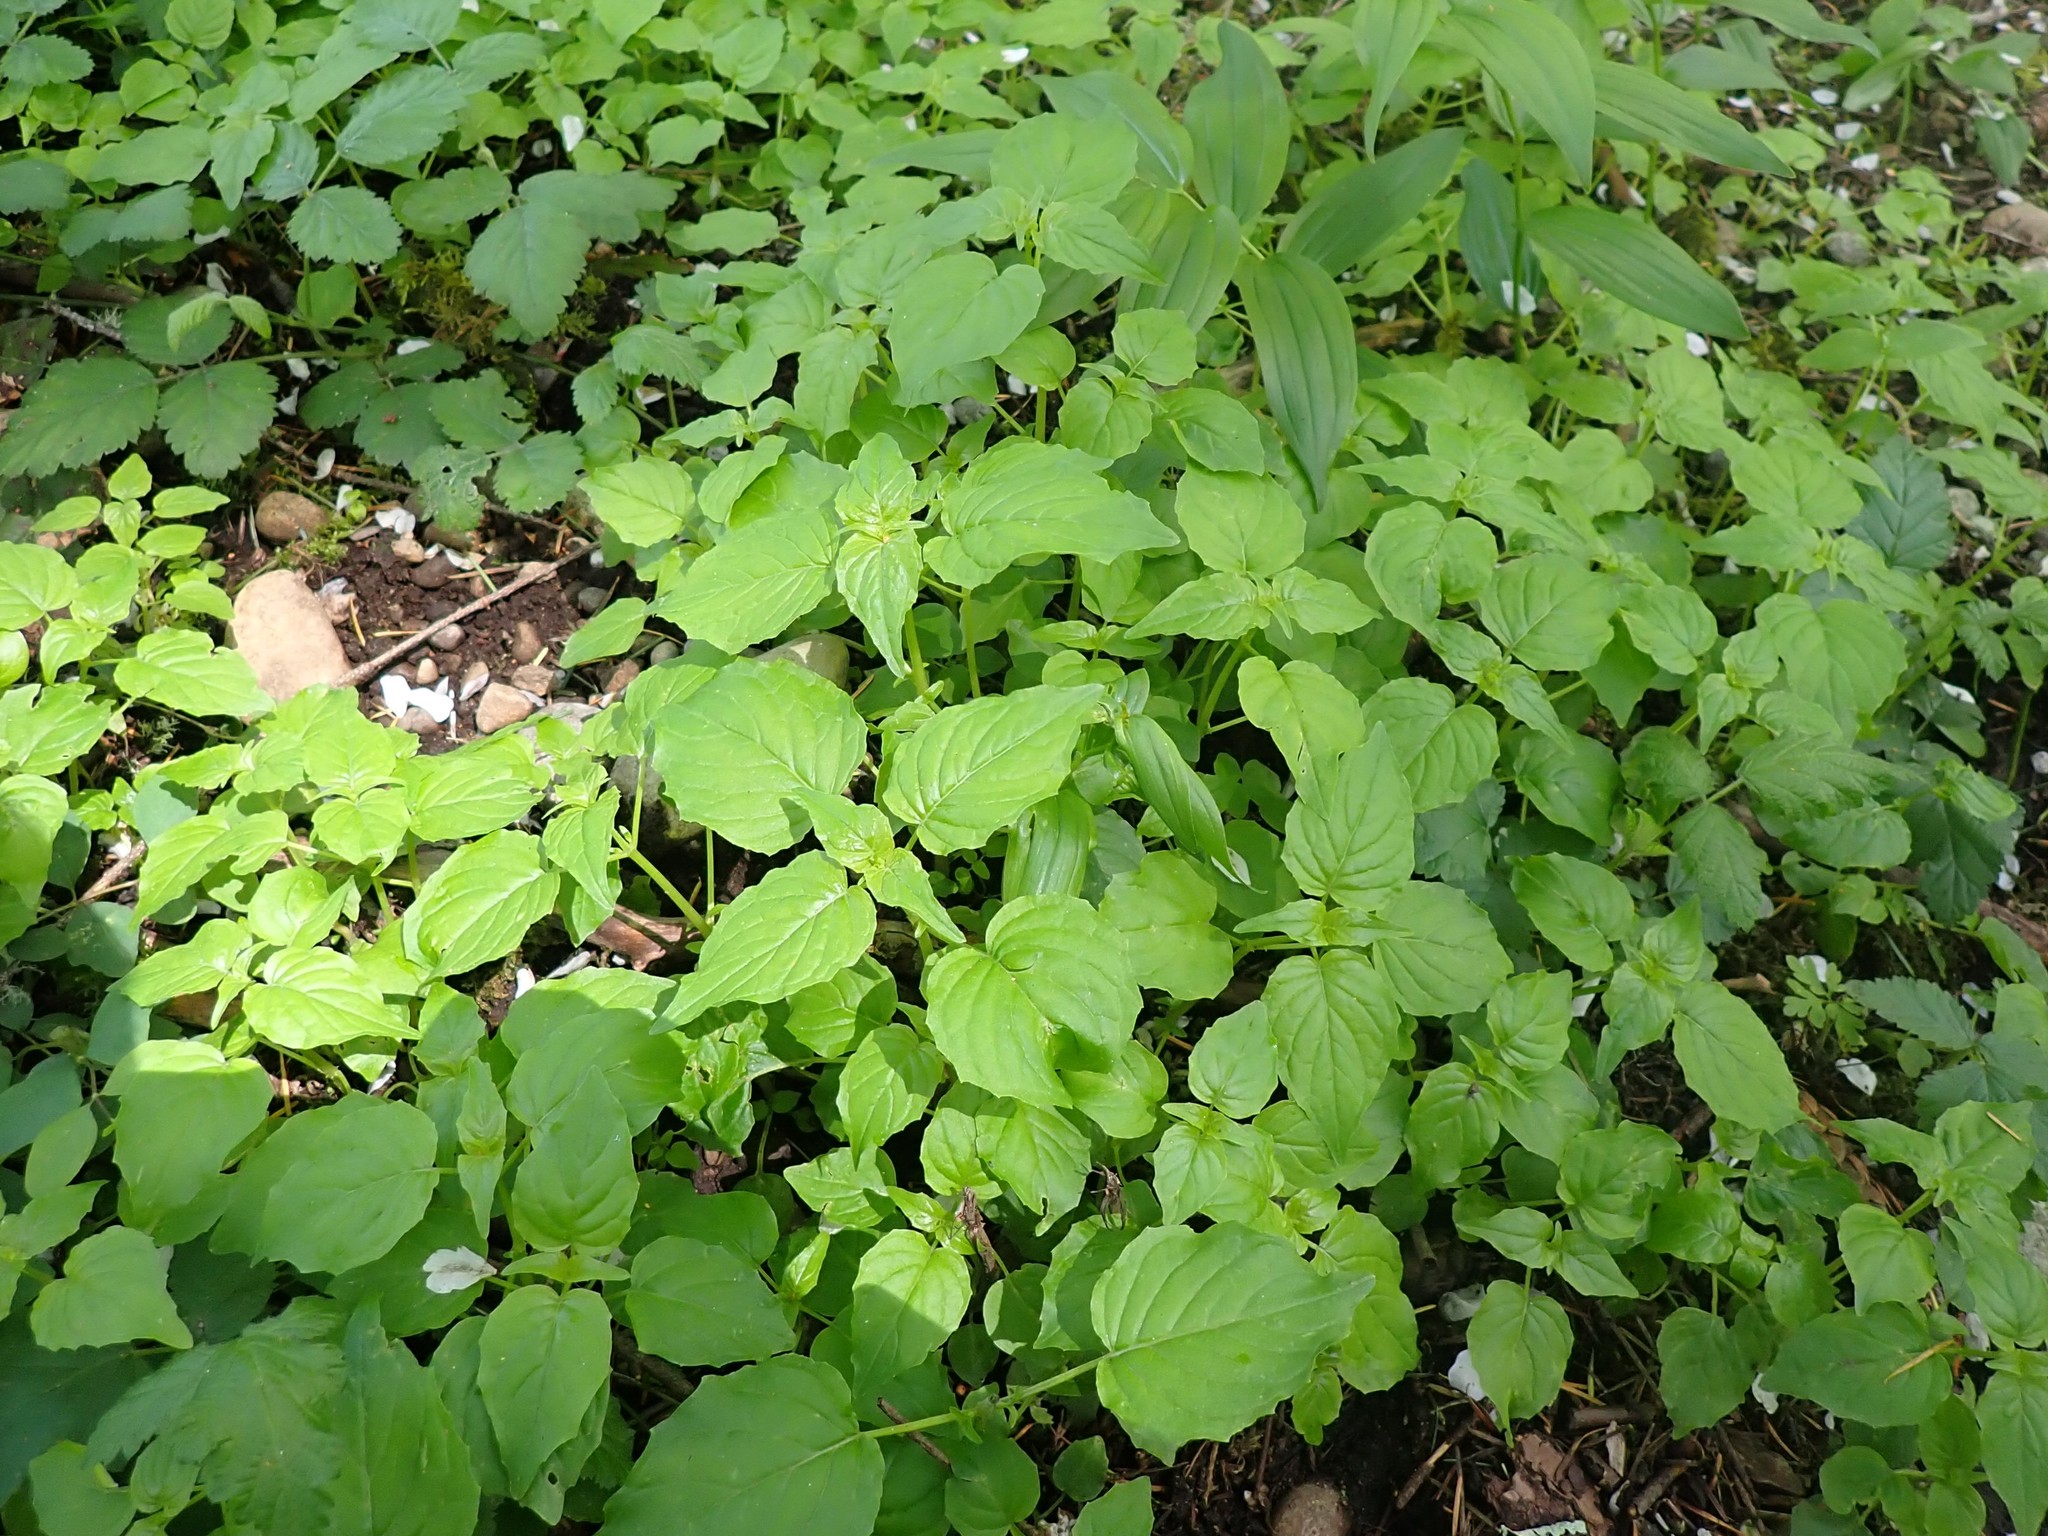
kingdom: Plantae
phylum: Tracheophyta
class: Magnoliopsida
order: Myrtales
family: Onagraceae
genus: Circaea
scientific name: Circaea alpina
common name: Alpine enchanter's-nightshade
